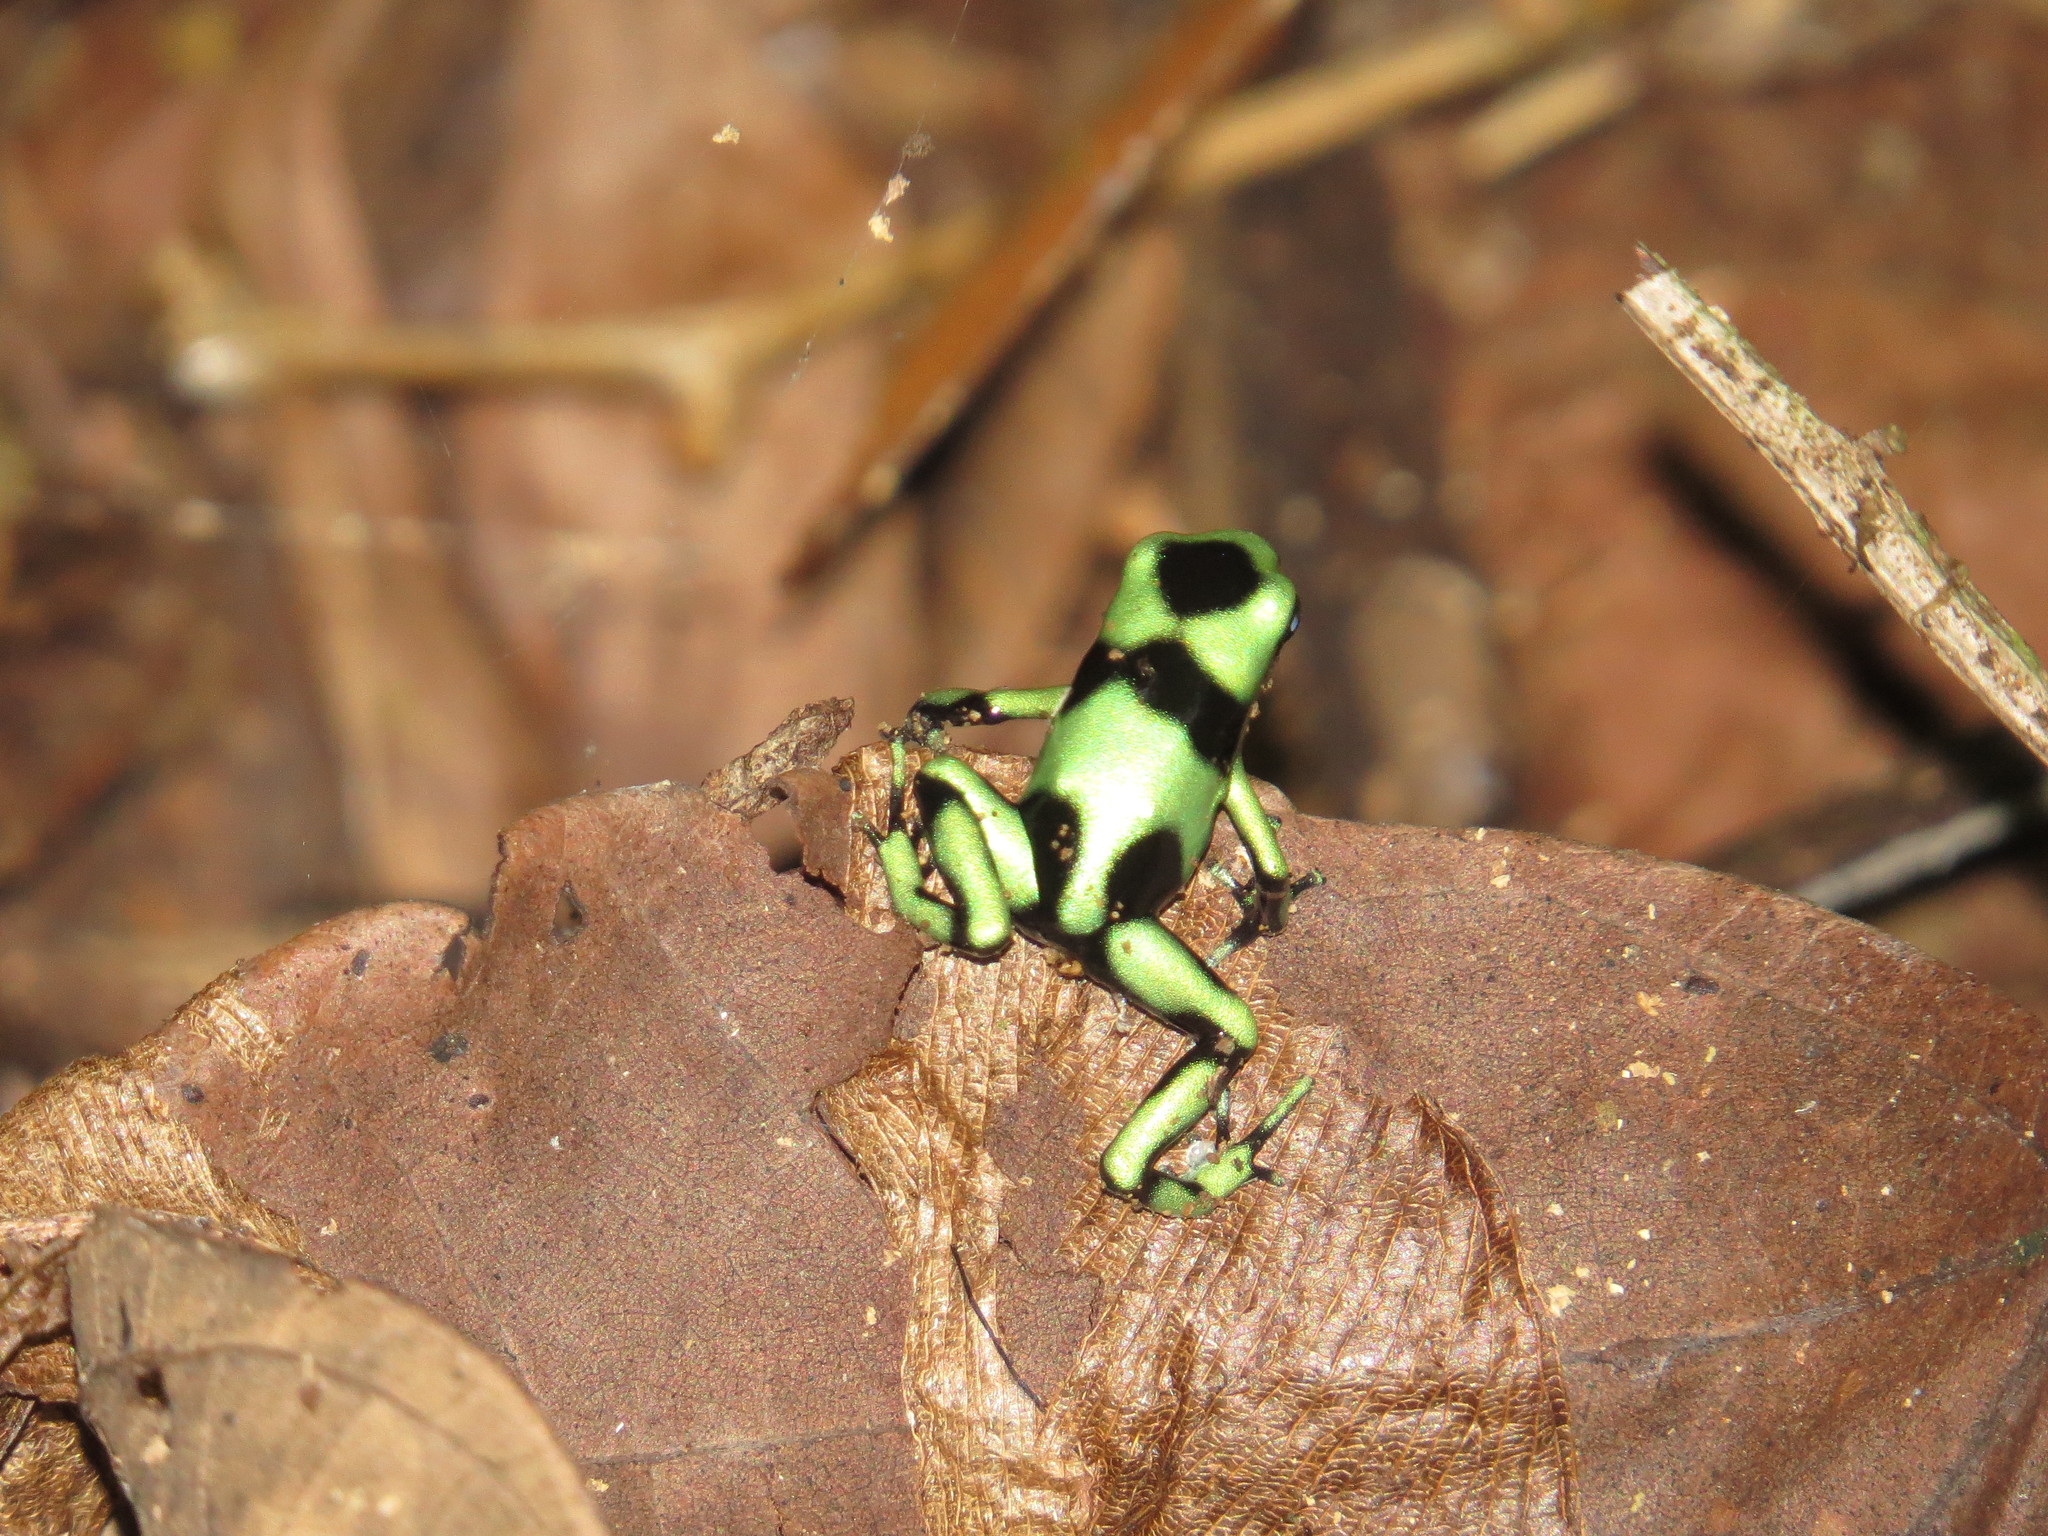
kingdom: Animalia
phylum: Chordata
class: Amphibia
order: Anura
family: Dendrobatidae
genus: Dendrobates
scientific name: Dendrobates auratus
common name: Green and black poison dart frog
